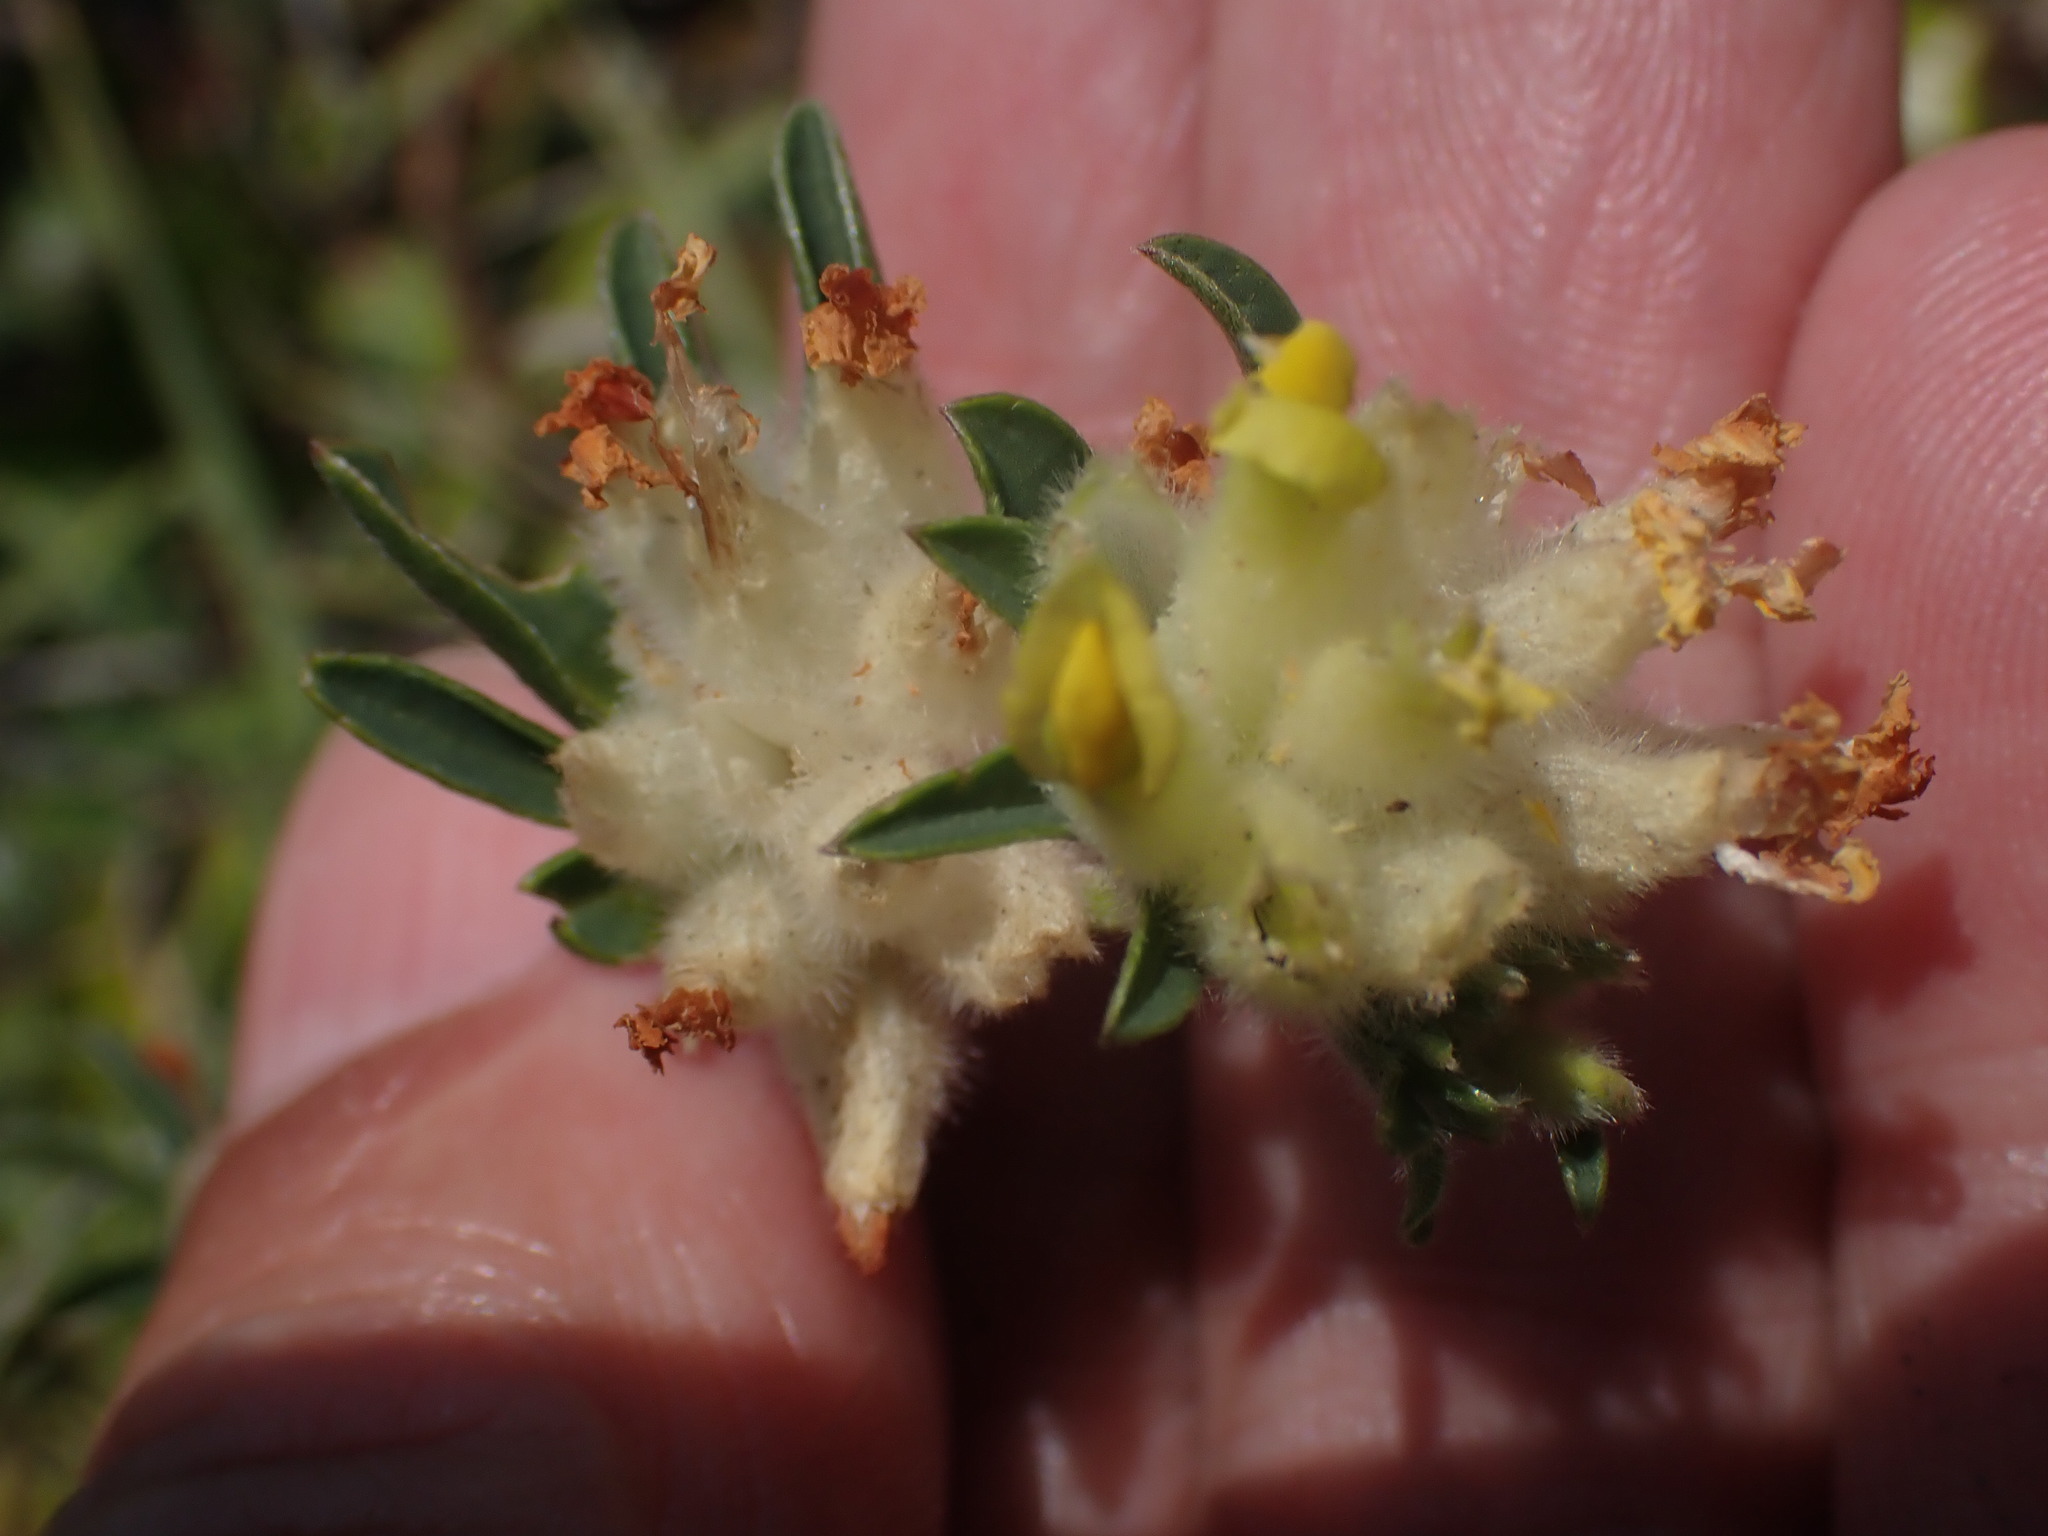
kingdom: Plantae
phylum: Tracheophyta
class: Magnoliopsida
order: Fabales
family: Fabaceae
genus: Anthyllis
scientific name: Anthyllis vulneraria
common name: Kidney vetch
